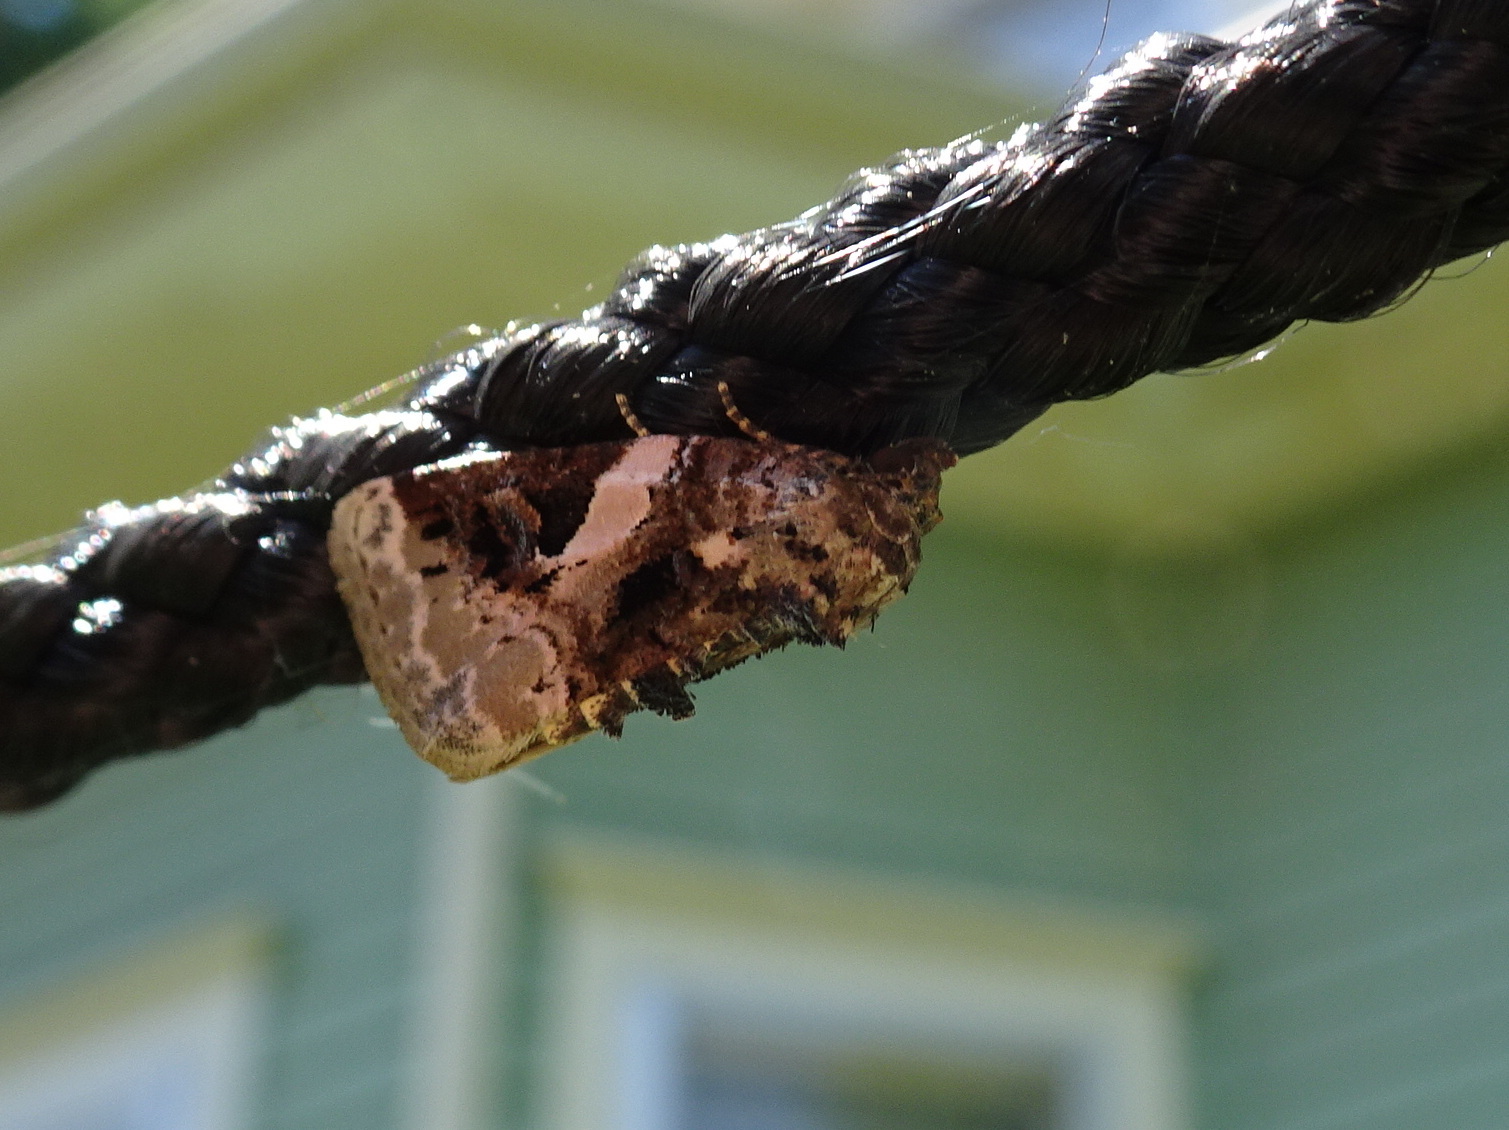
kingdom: Animalia
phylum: Arthropoda
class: Insecta
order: Lepidoptera
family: Noctuidae
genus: Pseudeustrotia
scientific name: Pseudeustrotia carneola
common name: Pink-barred lithacodia moth
